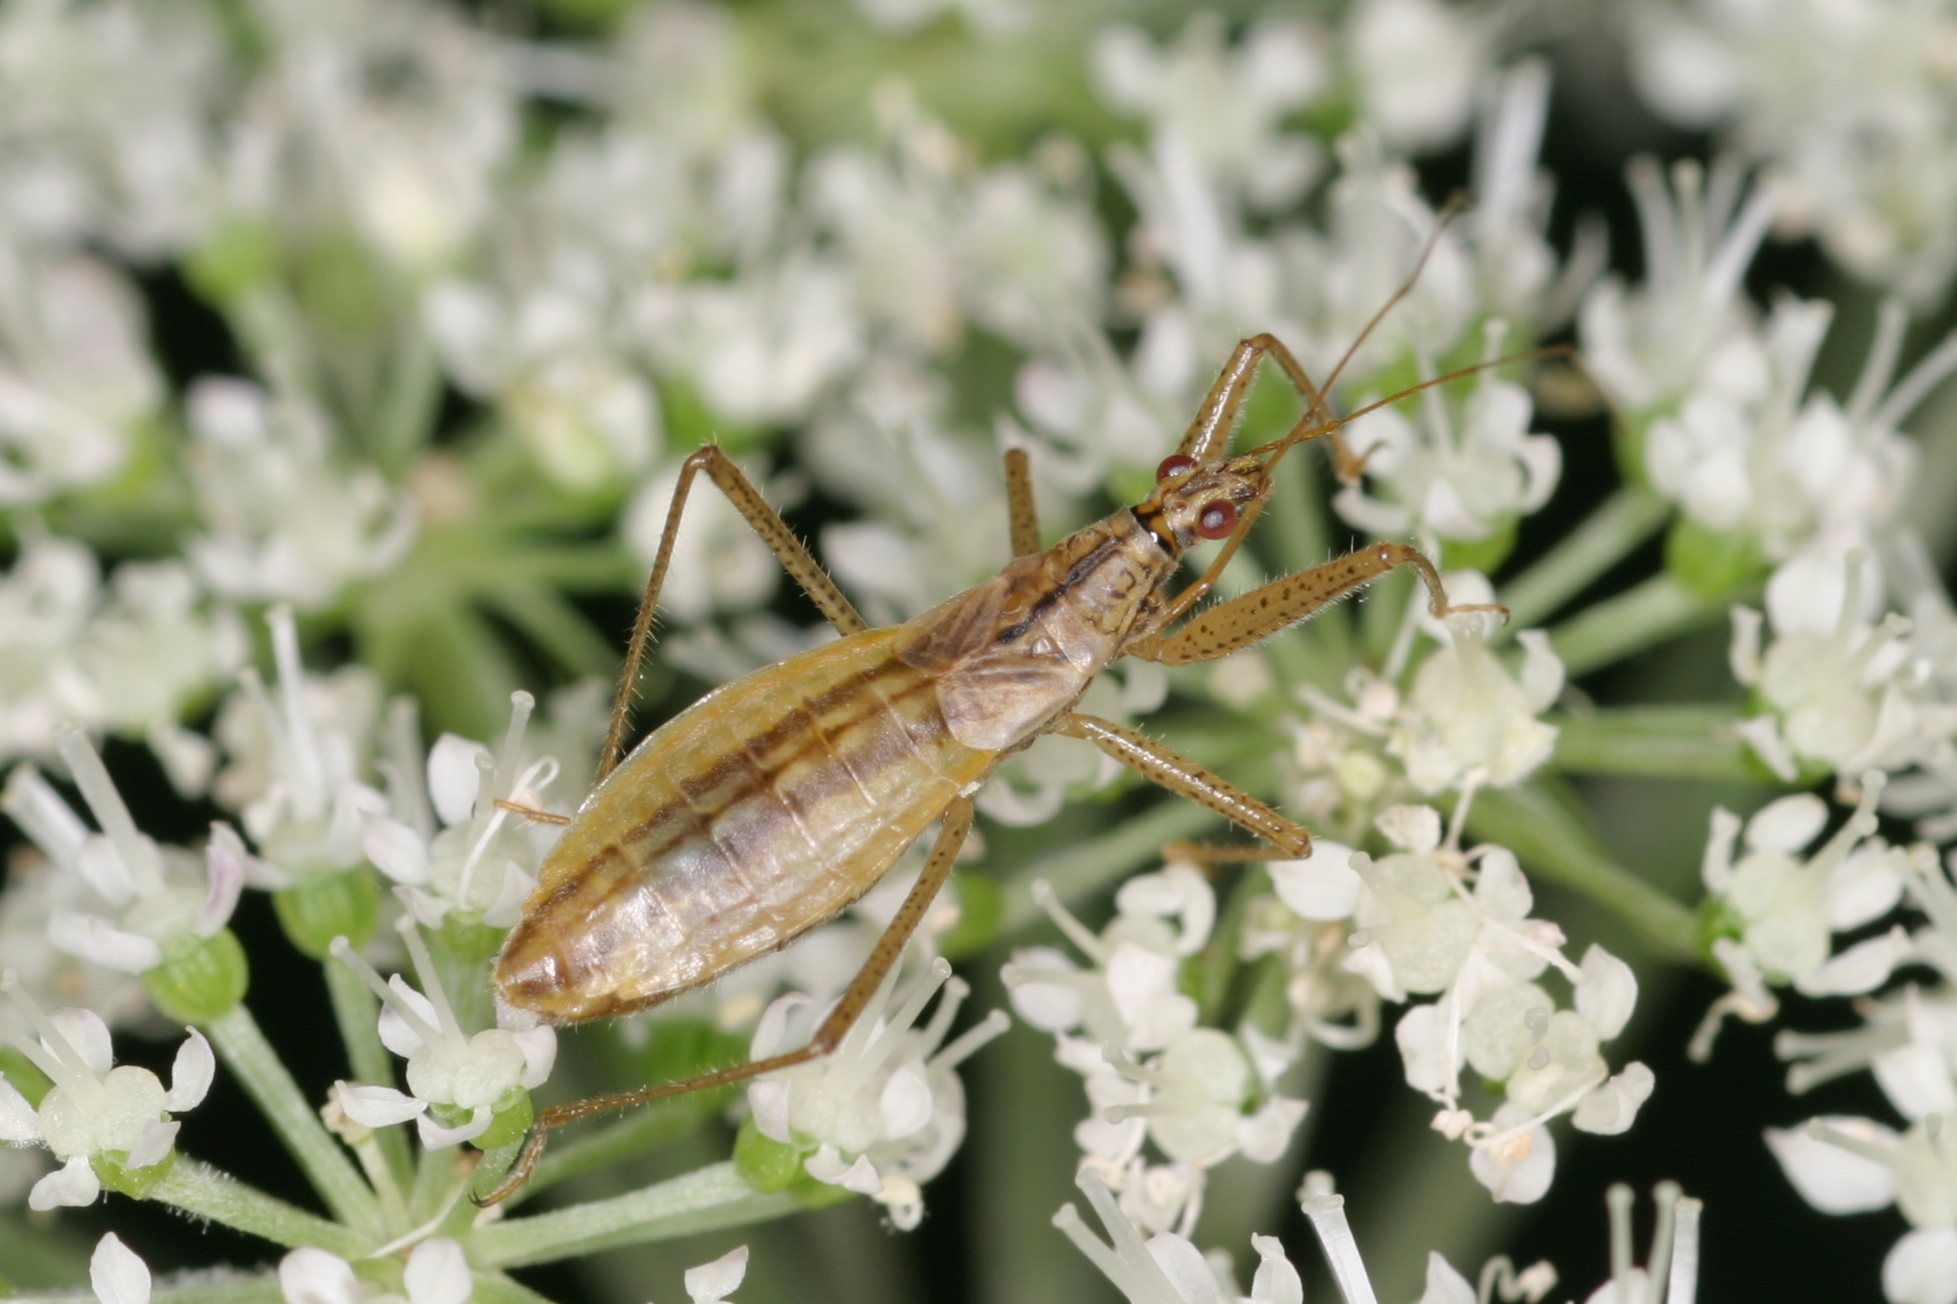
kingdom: Animalia
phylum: Arthropoda
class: Insecta
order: Hemiptera
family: Nabidae
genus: Nabis
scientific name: Nabis limbatus
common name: Marsh damselbug
